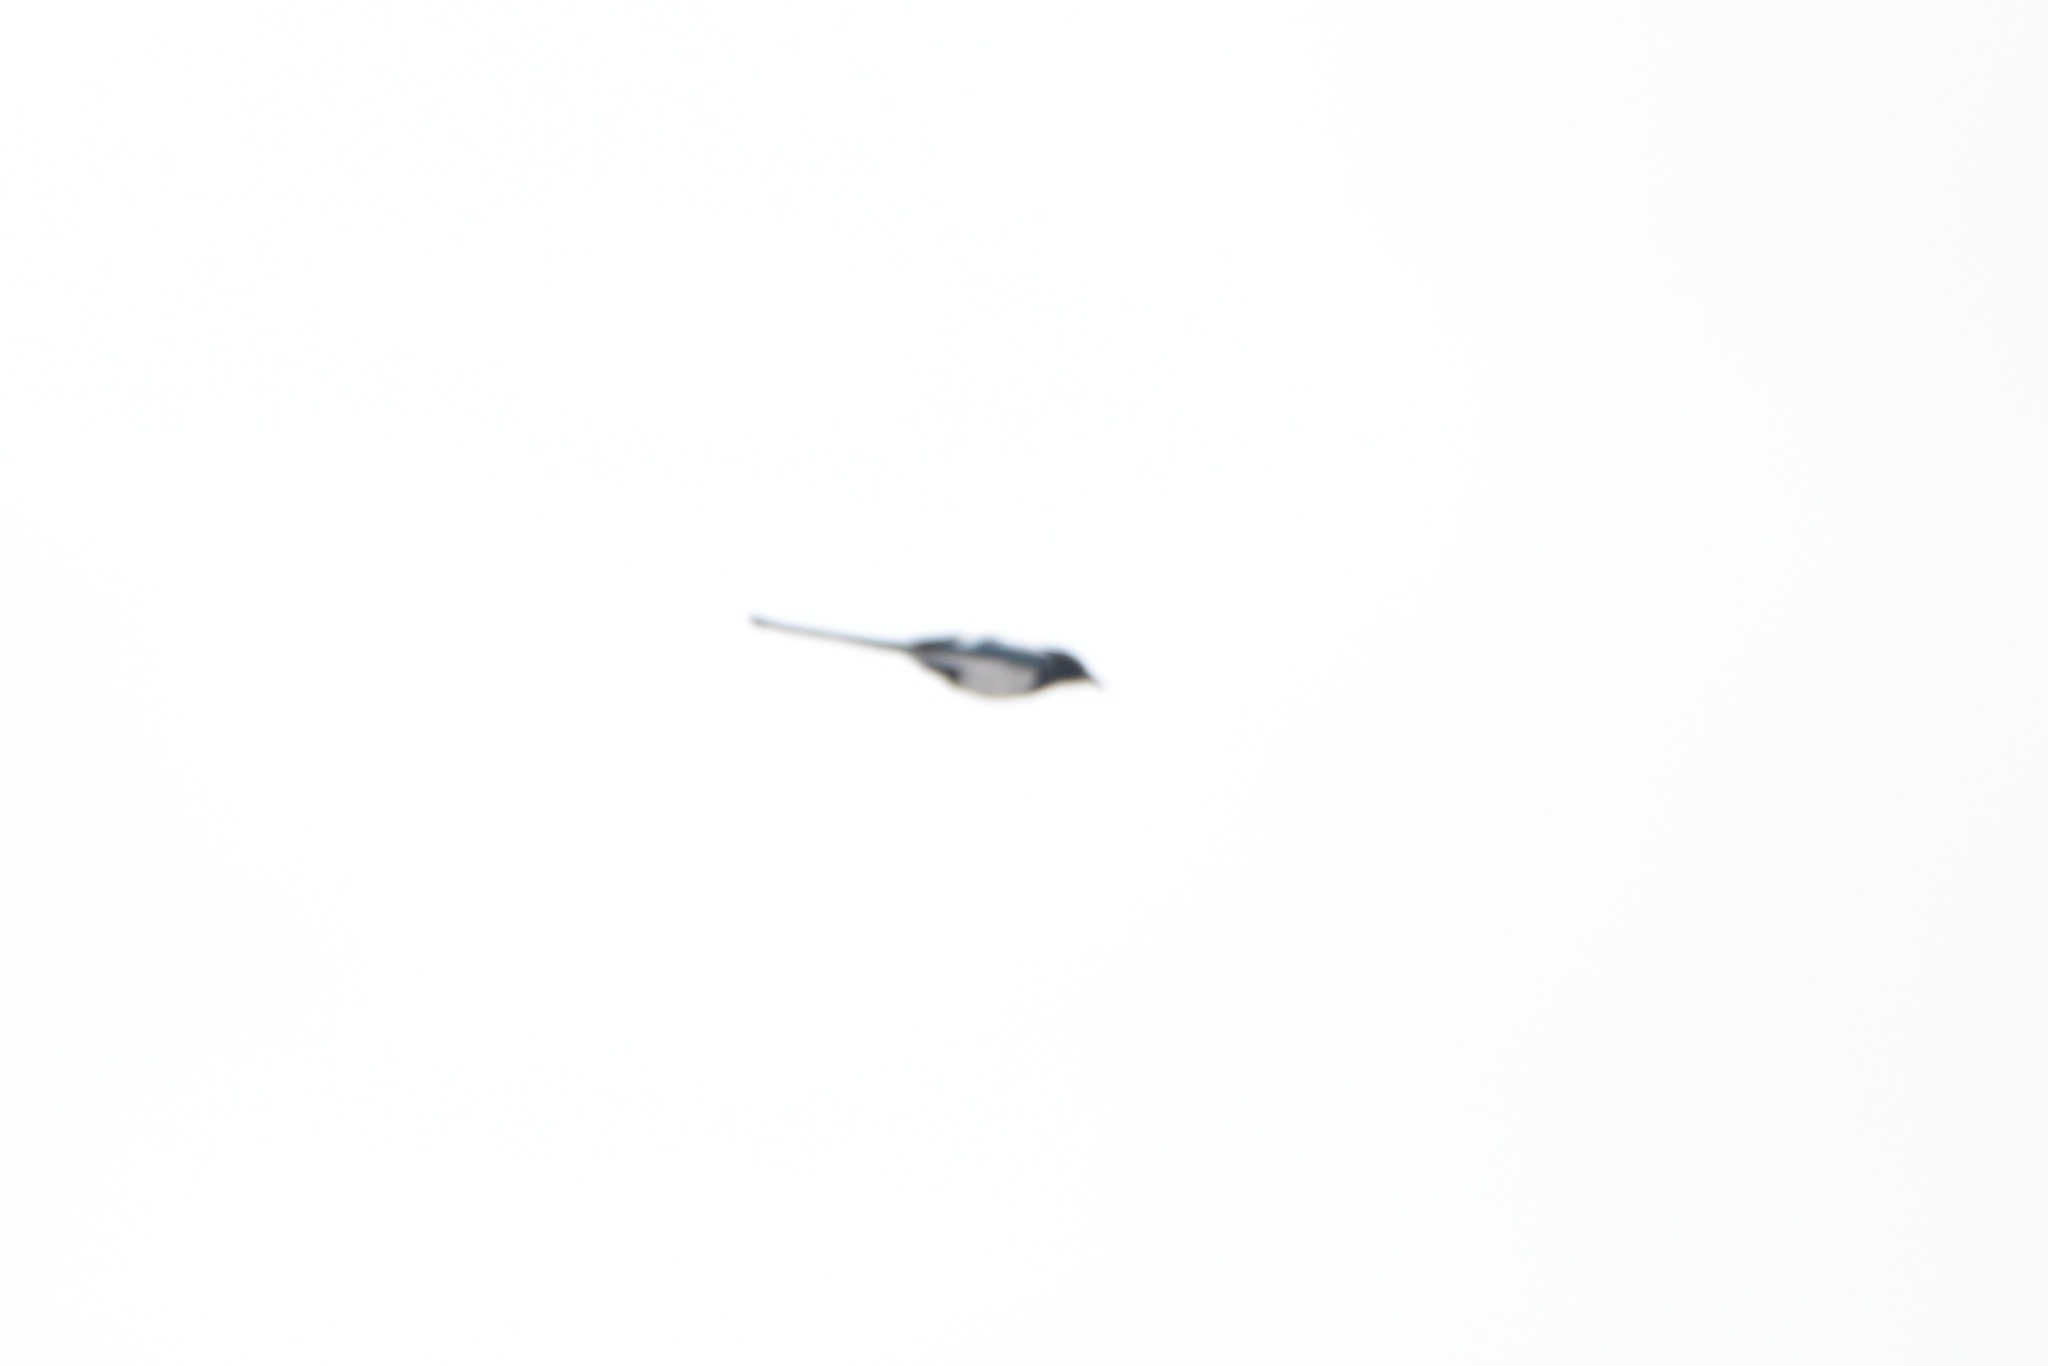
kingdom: Animalia
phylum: Chordata
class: Aves
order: Passeriformes
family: Corvidae
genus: Pica
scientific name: Pica pica
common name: Eurasian magpie
